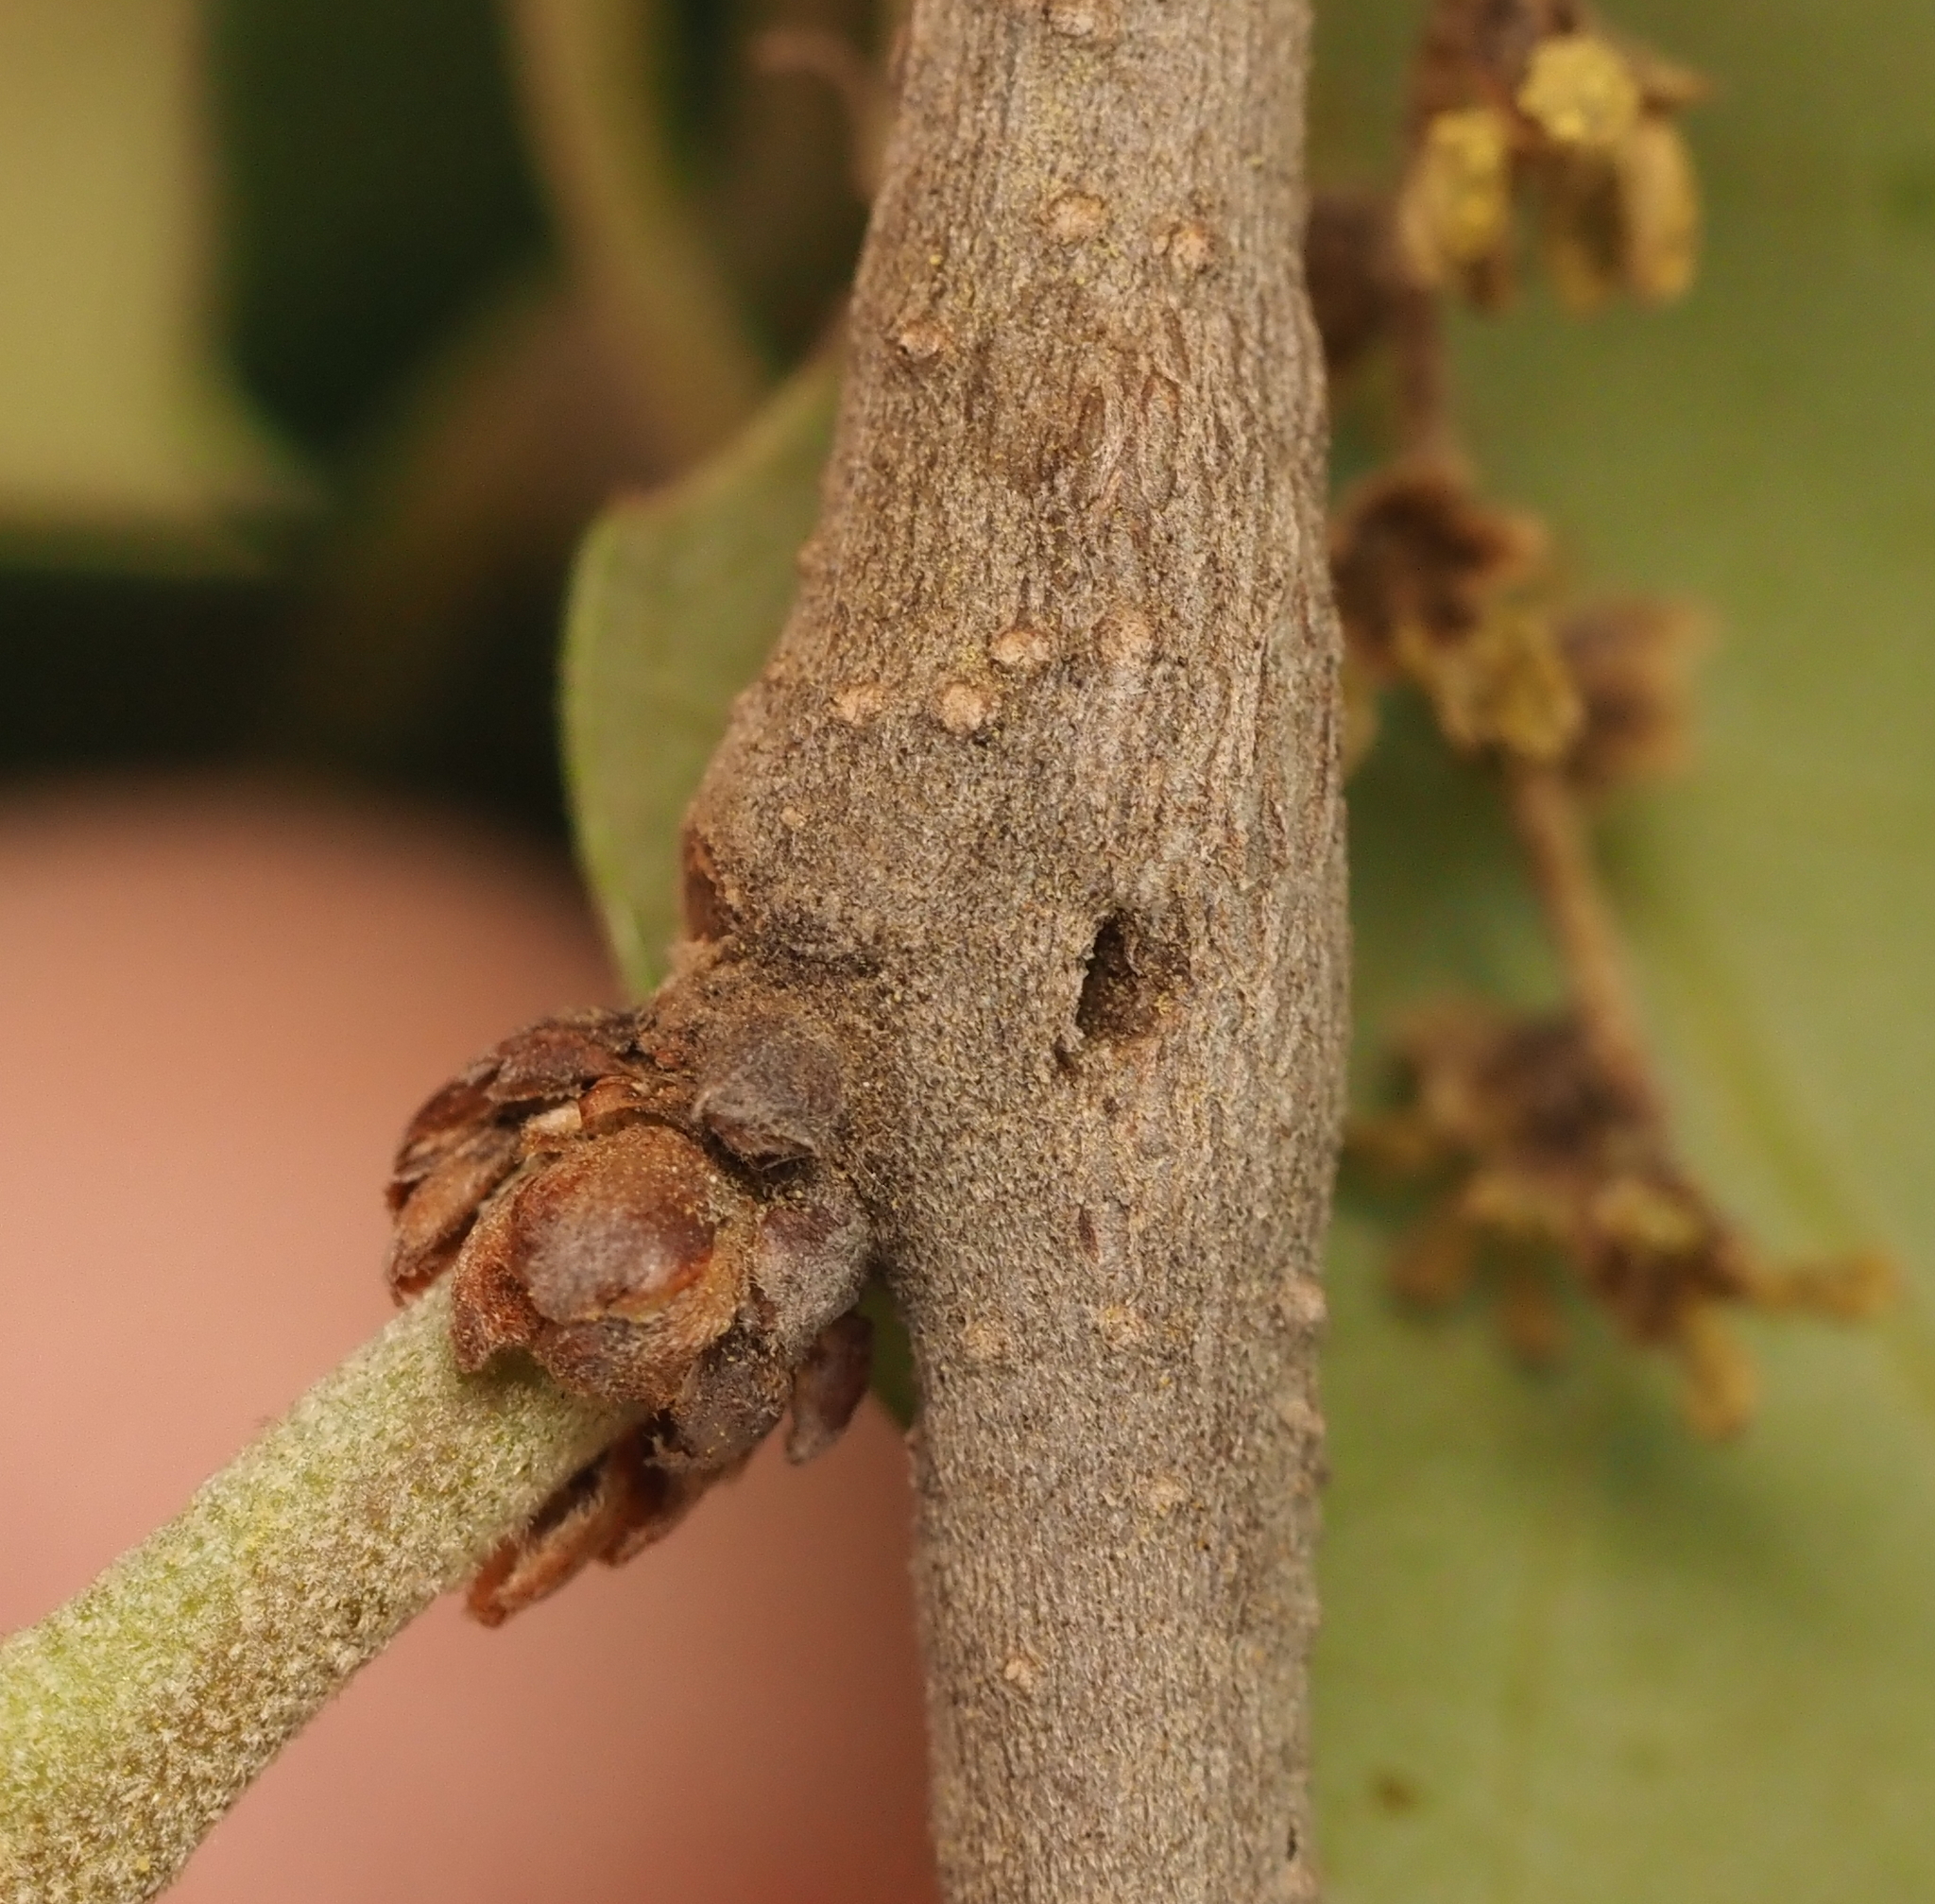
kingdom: Animalia
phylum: Arthropoda
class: Insecta
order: Hymenoptera
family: Cynipidae
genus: Neuroterus
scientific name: Neuroterus valhalla
